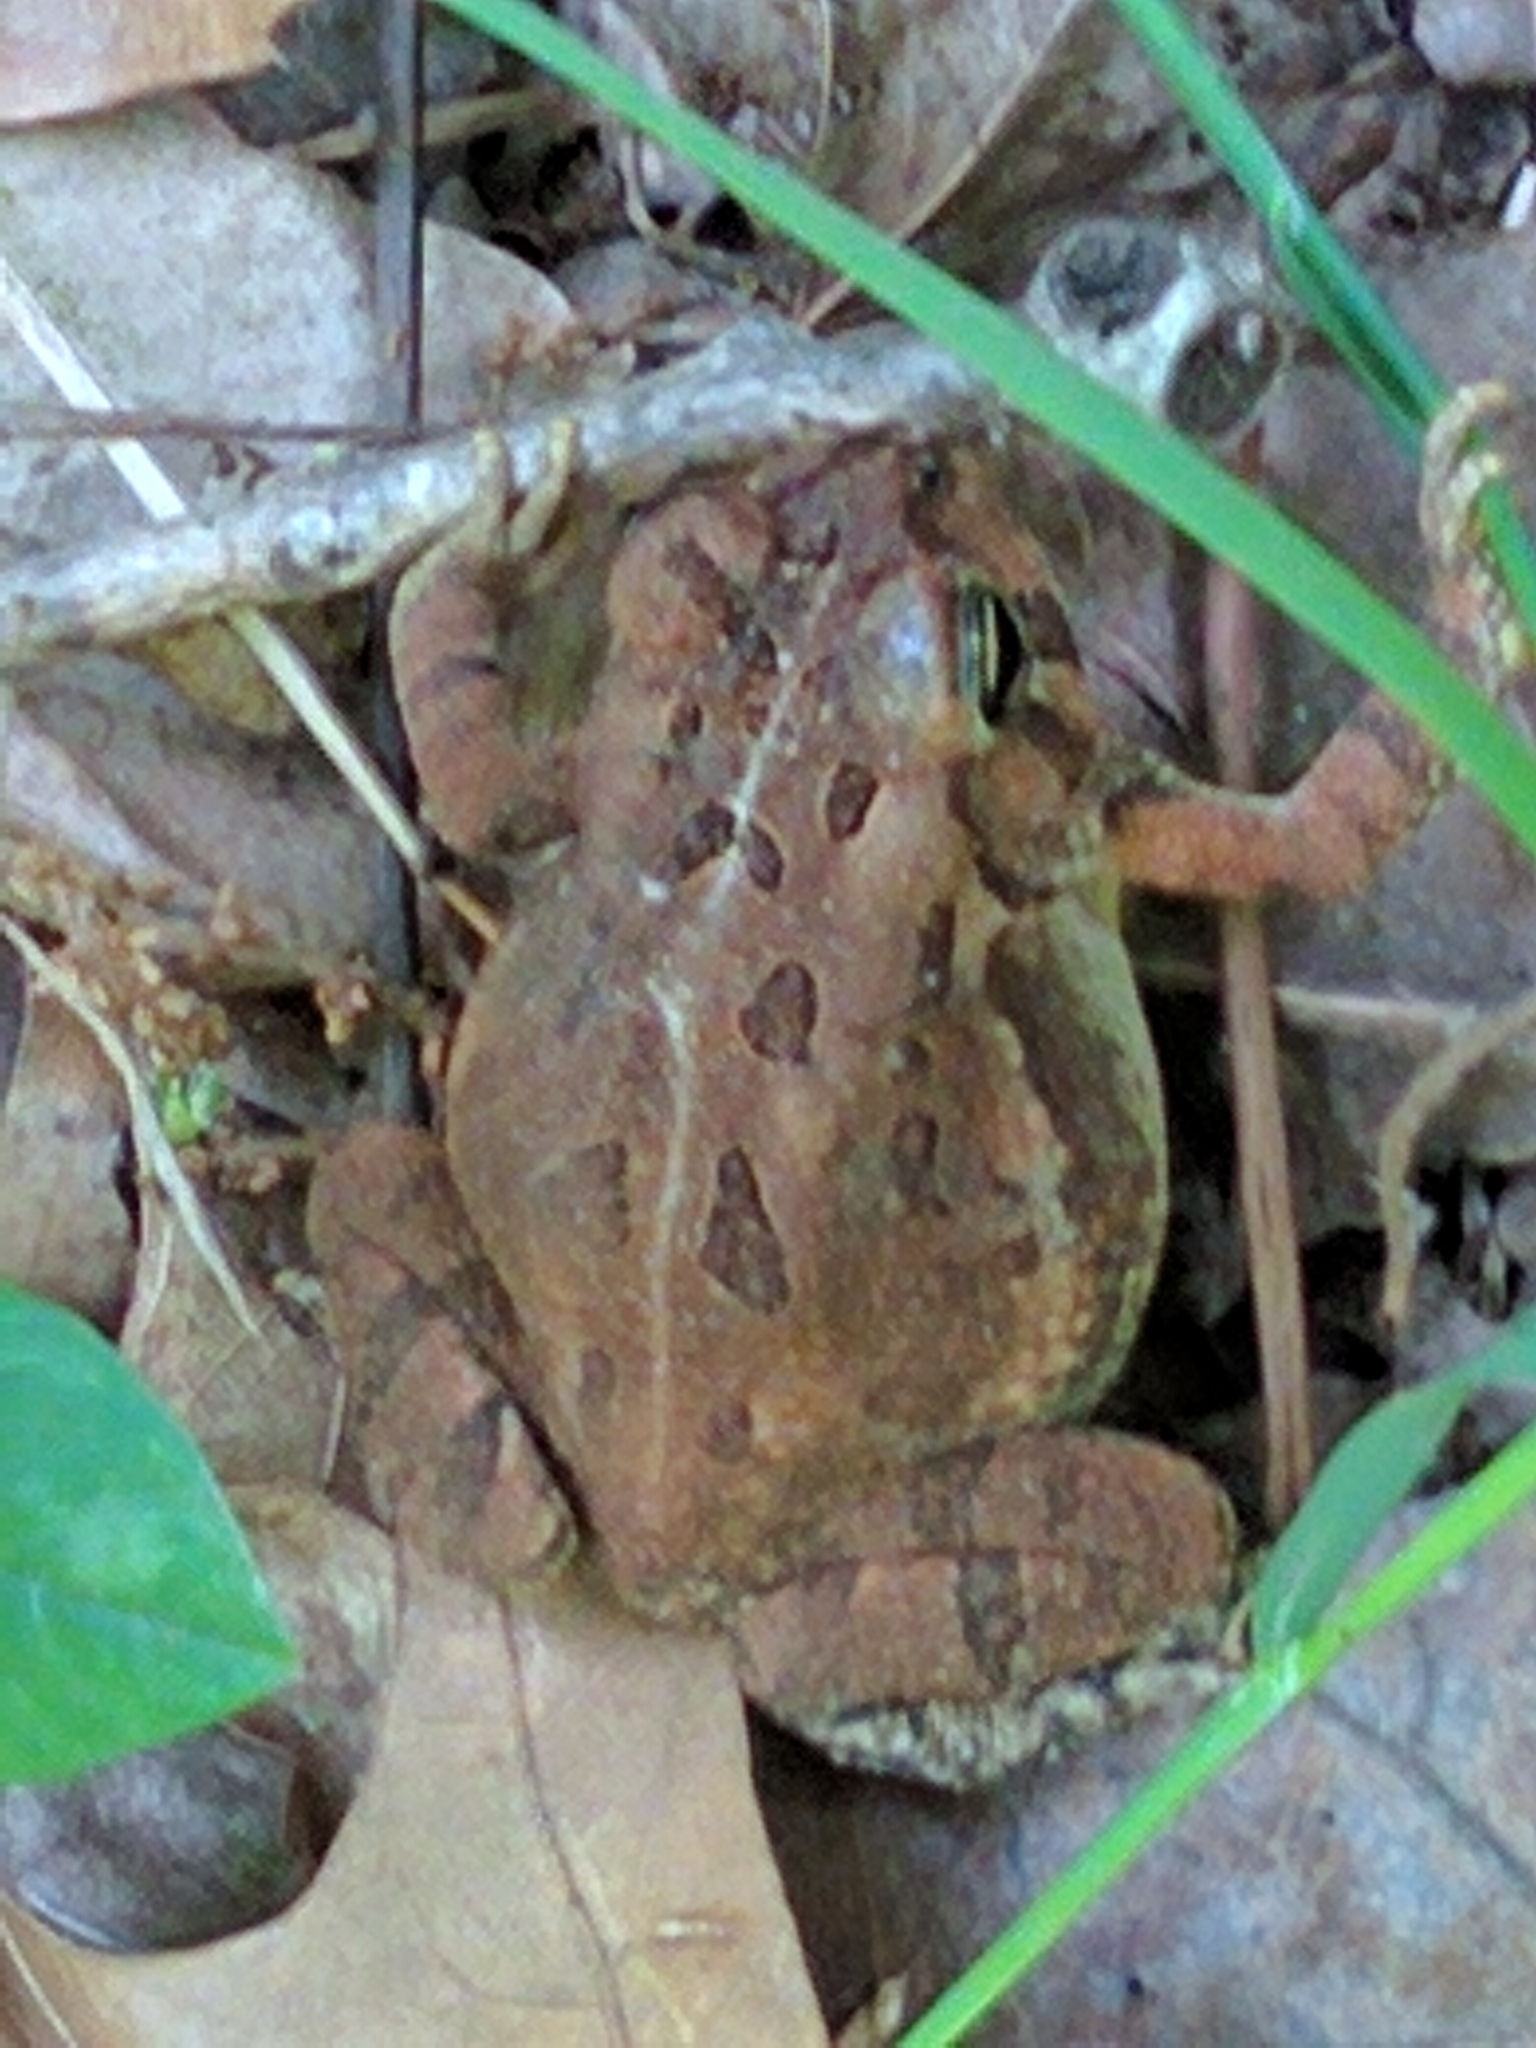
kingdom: Animalia
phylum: Chordata
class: Amphibia
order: Anura
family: Bufonidae
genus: Anaxyrus
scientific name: Anaxyrus fowleri
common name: Fowler's toad
